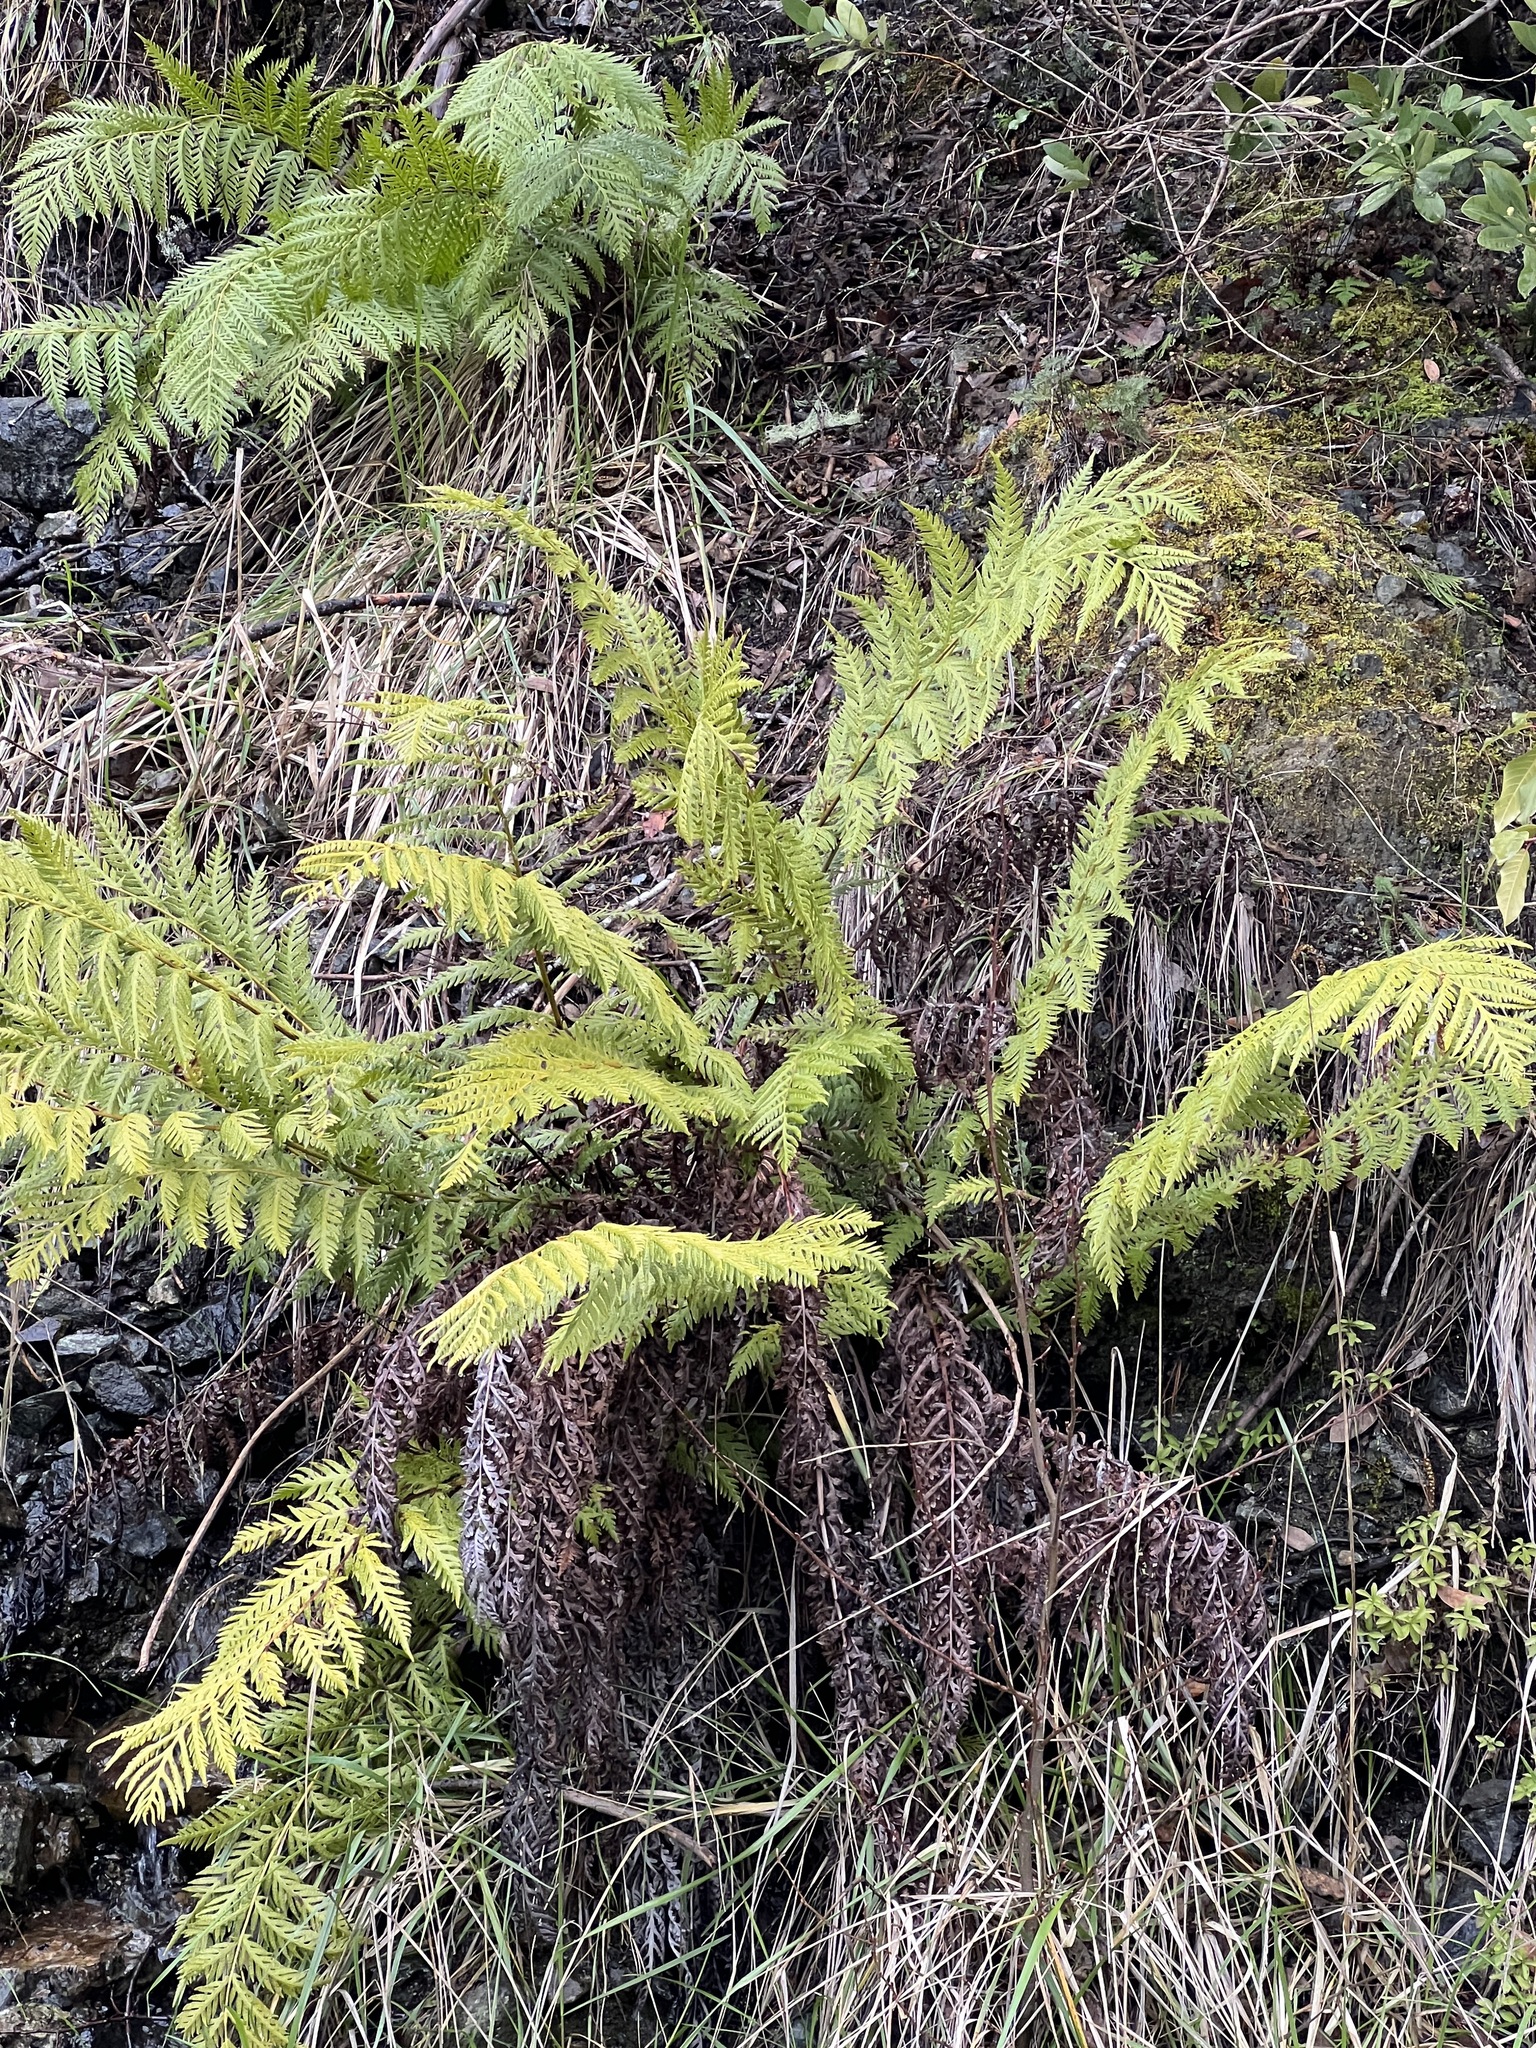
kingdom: Plantae
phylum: Tracheophyta
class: Polypodiopsida
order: Polypodiales
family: Blechnaceae
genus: Woodwardia
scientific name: Woodwardia fimbriata
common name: Giant chain fern
